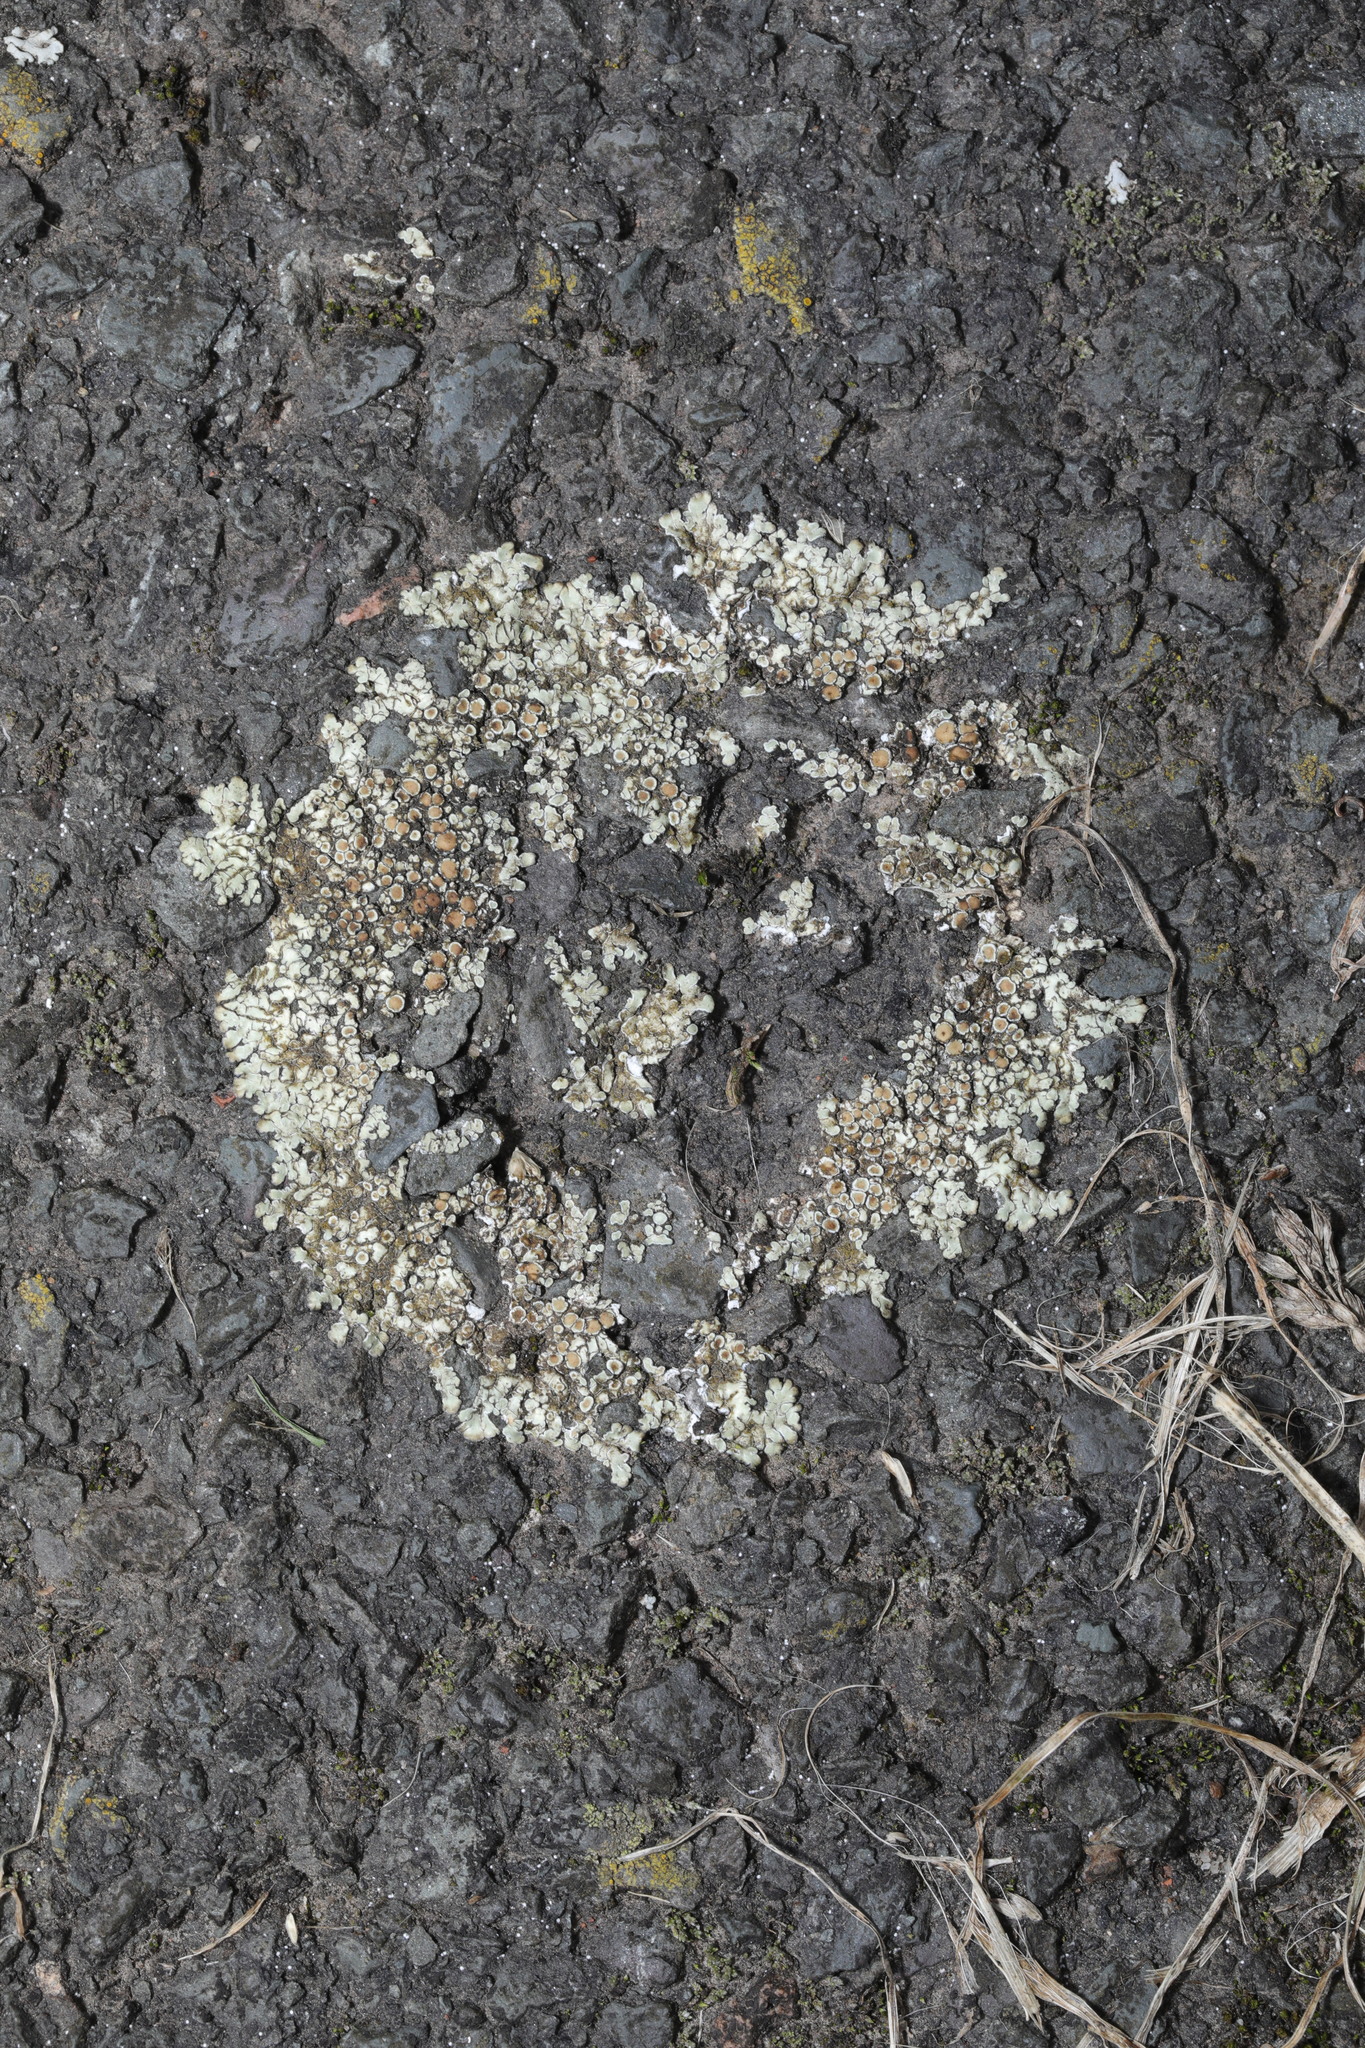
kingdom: Fungi
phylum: Ascomycota
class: Lecanoromycetes
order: Lecanorales
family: Lecanoraceae
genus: Protoparmeliopsis
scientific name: Protoparmeliopsis muralis
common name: Stonewall rim lichen
